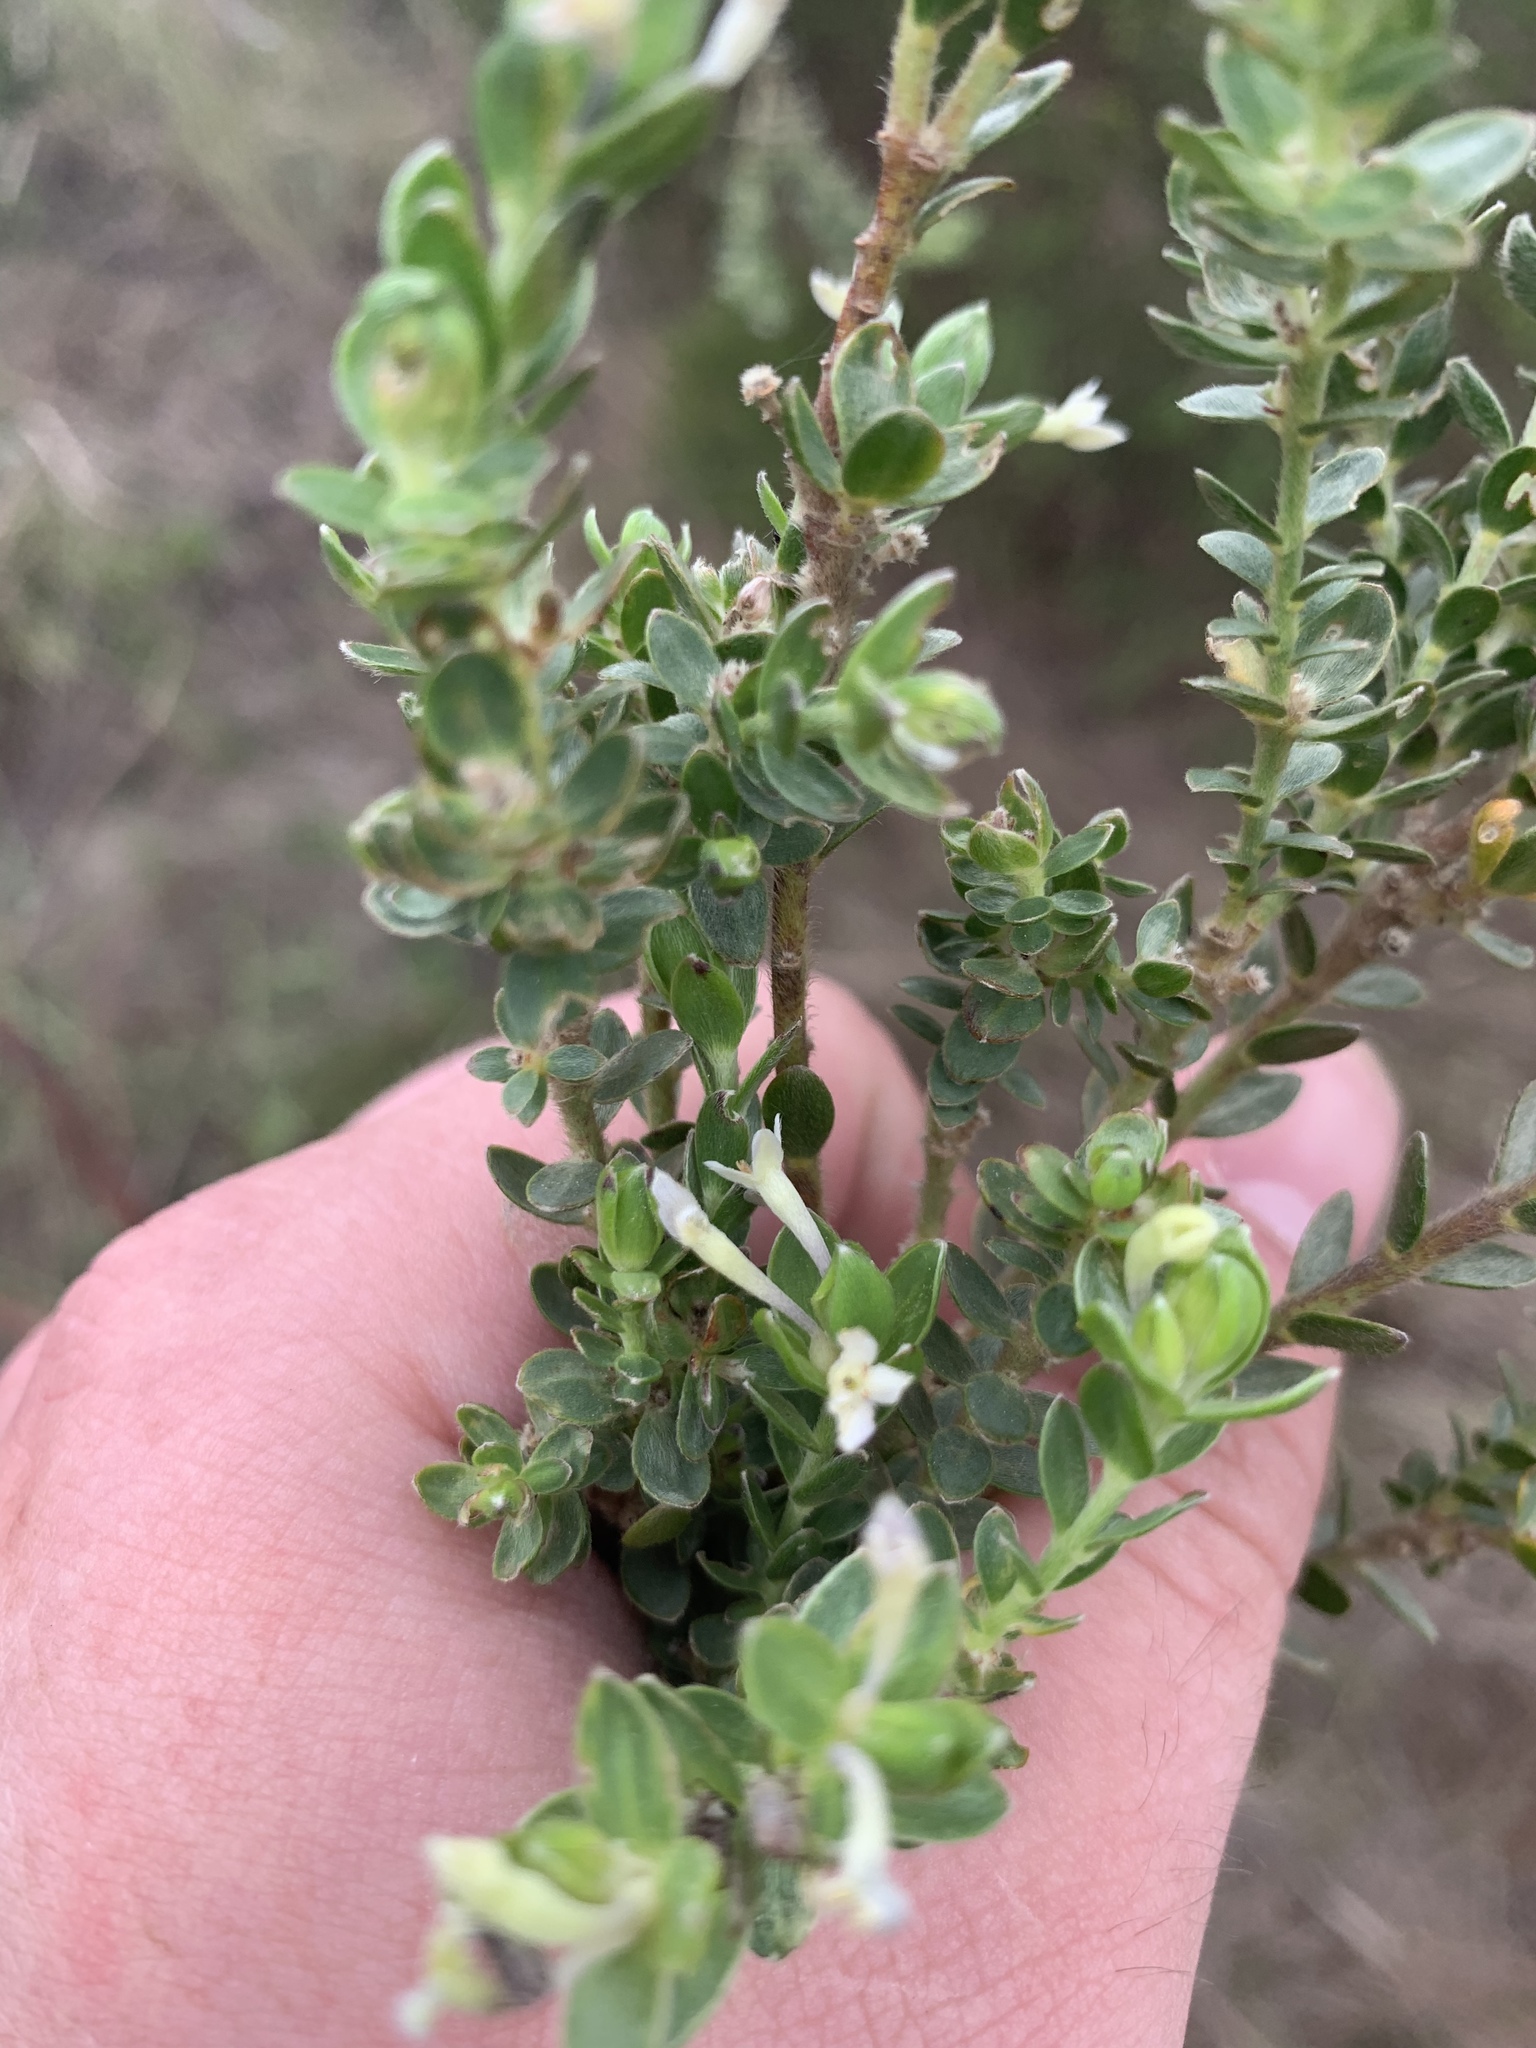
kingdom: Plantae
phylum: Tracheophyta
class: Magnoliopsida
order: Malvales
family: Thymelaeaceae
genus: Gnidia
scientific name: Gnidia sericea
